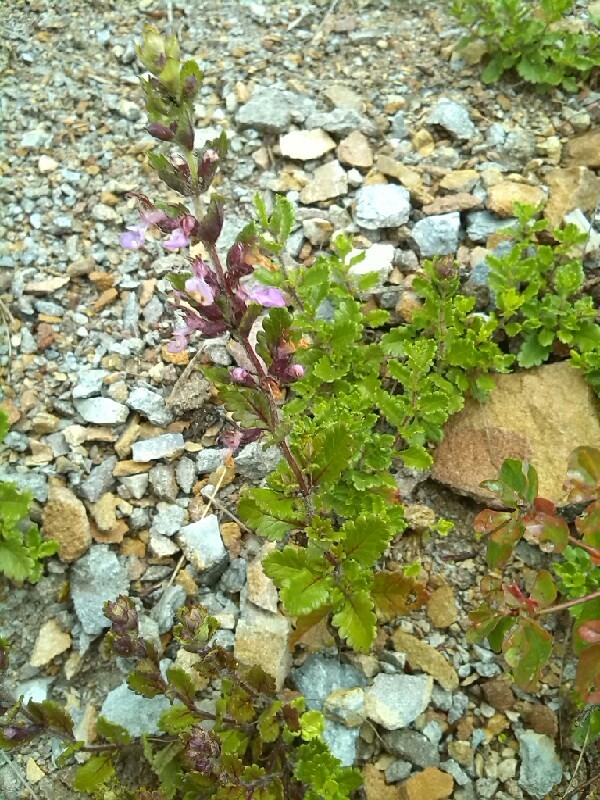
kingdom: Plantae
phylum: Tracheophyta
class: Magnoliopsida
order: Lamiales
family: Lamiaceae
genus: Teucrium
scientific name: Teucrium chamaedrys
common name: Wall germander
